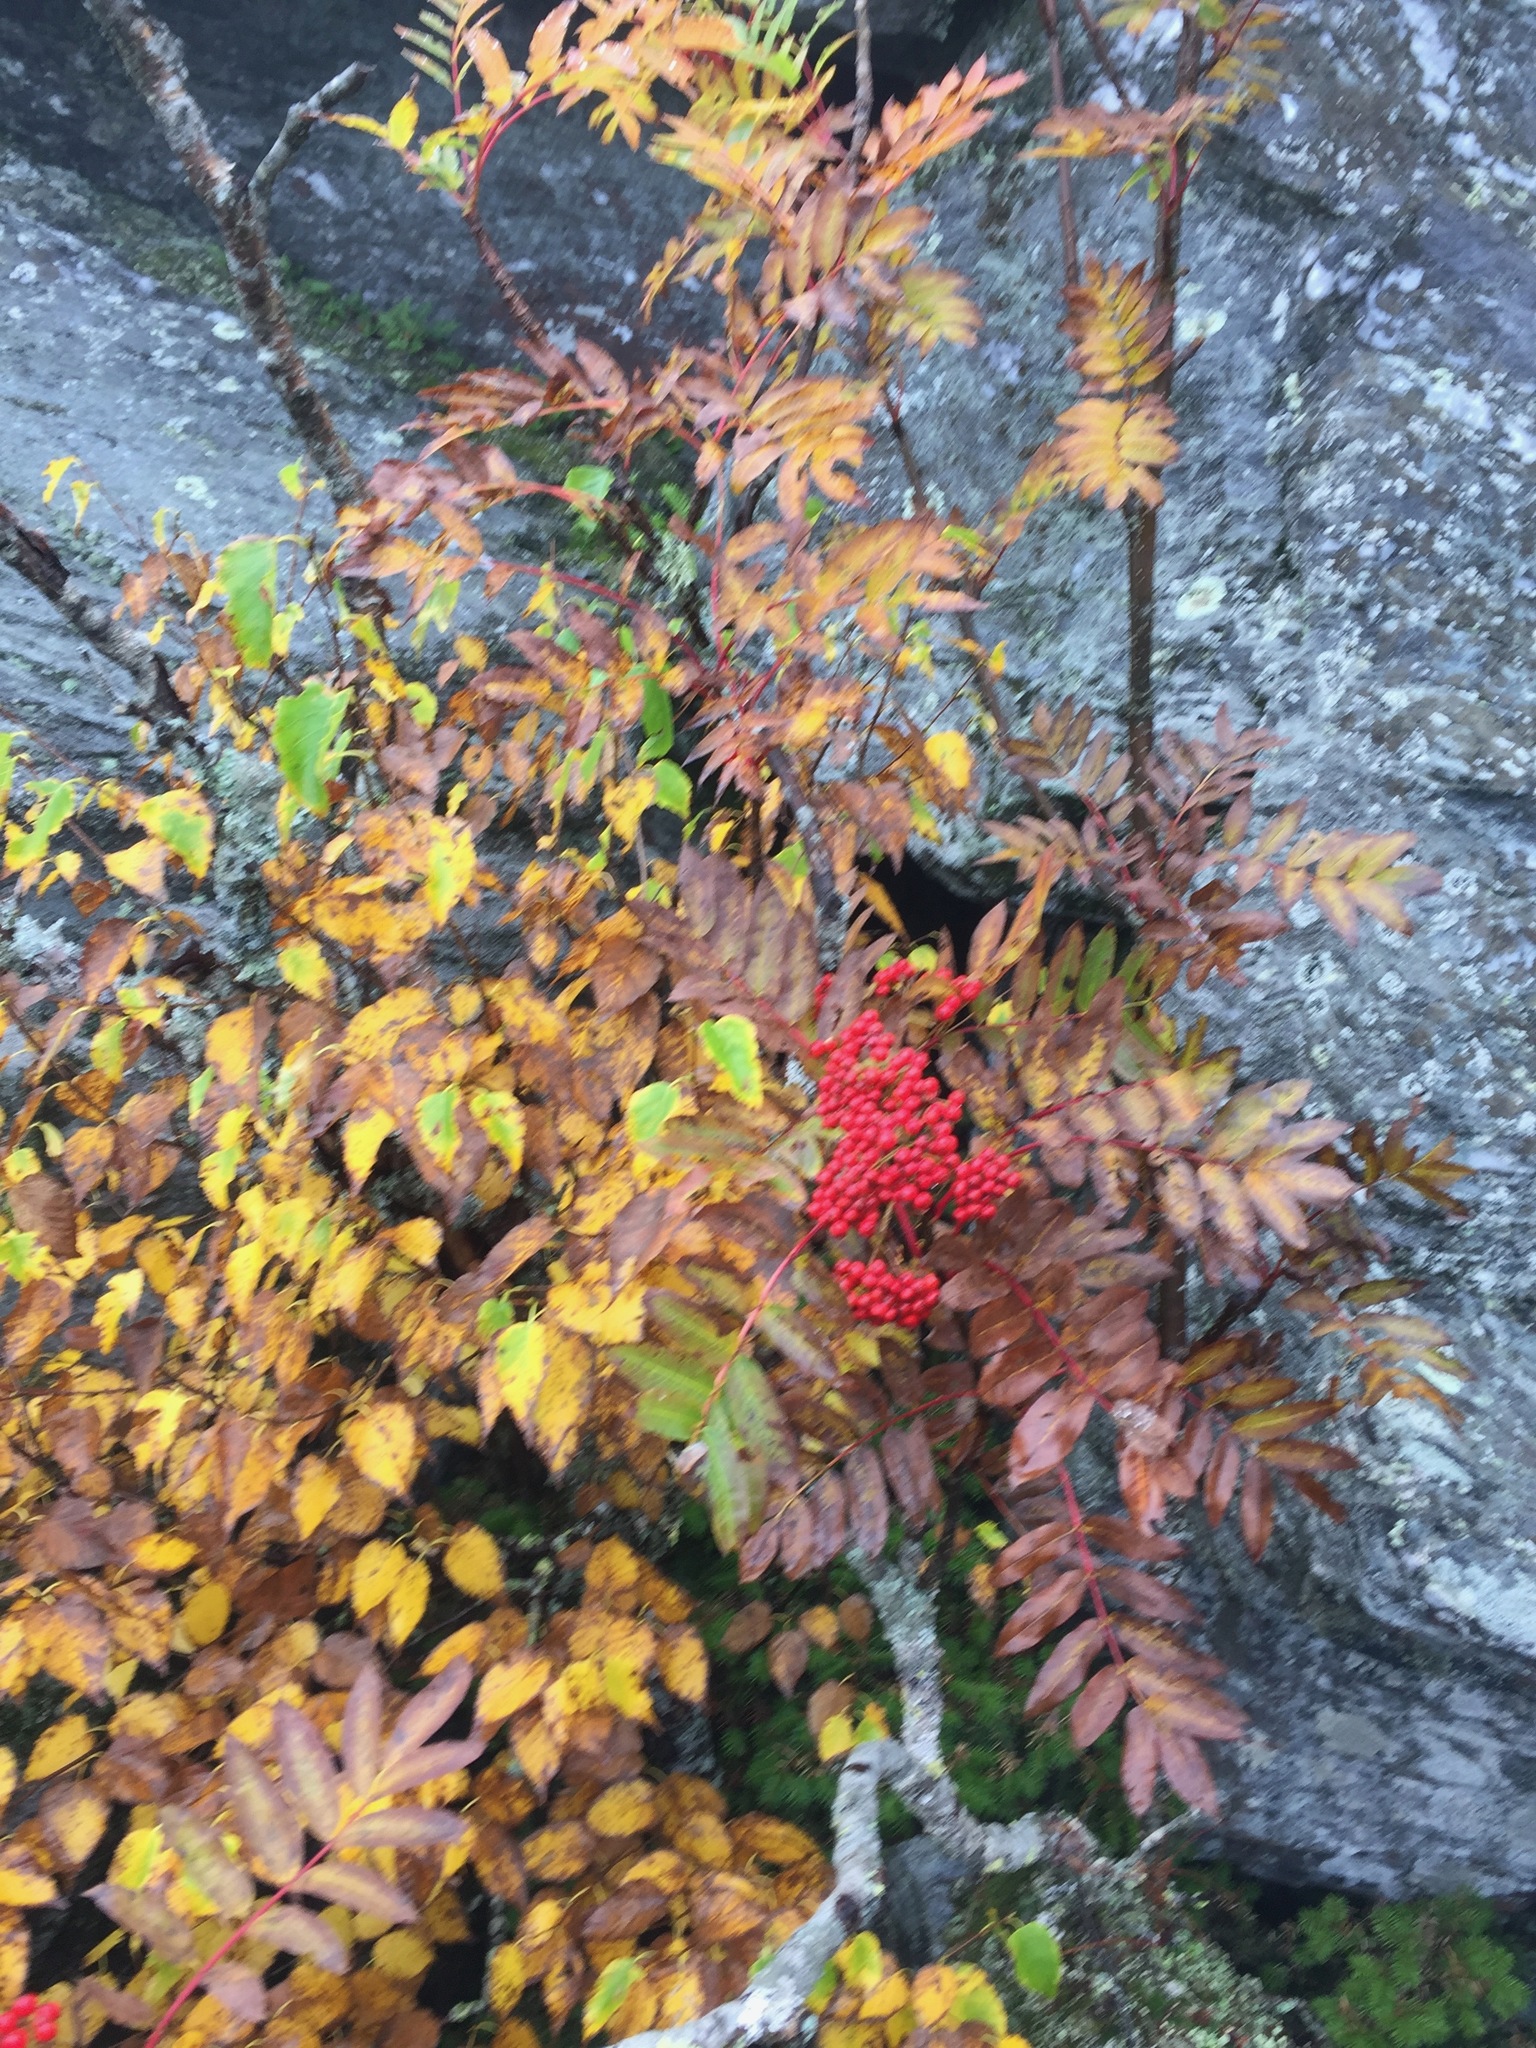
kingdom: Plantae
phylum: Tracheophyta
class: Magnoliopsida
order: Rosales
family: Rosaceae
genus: Sorbus
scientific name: Sorbus americana
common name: American mountain-ash
